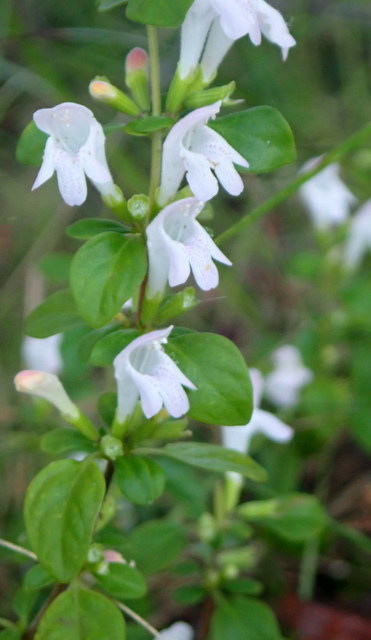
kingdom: Plantae
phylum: Tracheophyta
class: Magnoliopsida
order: Lamiales
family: Lamiaceae
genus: Clinopodium
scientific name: Clinopodium carolinianum
